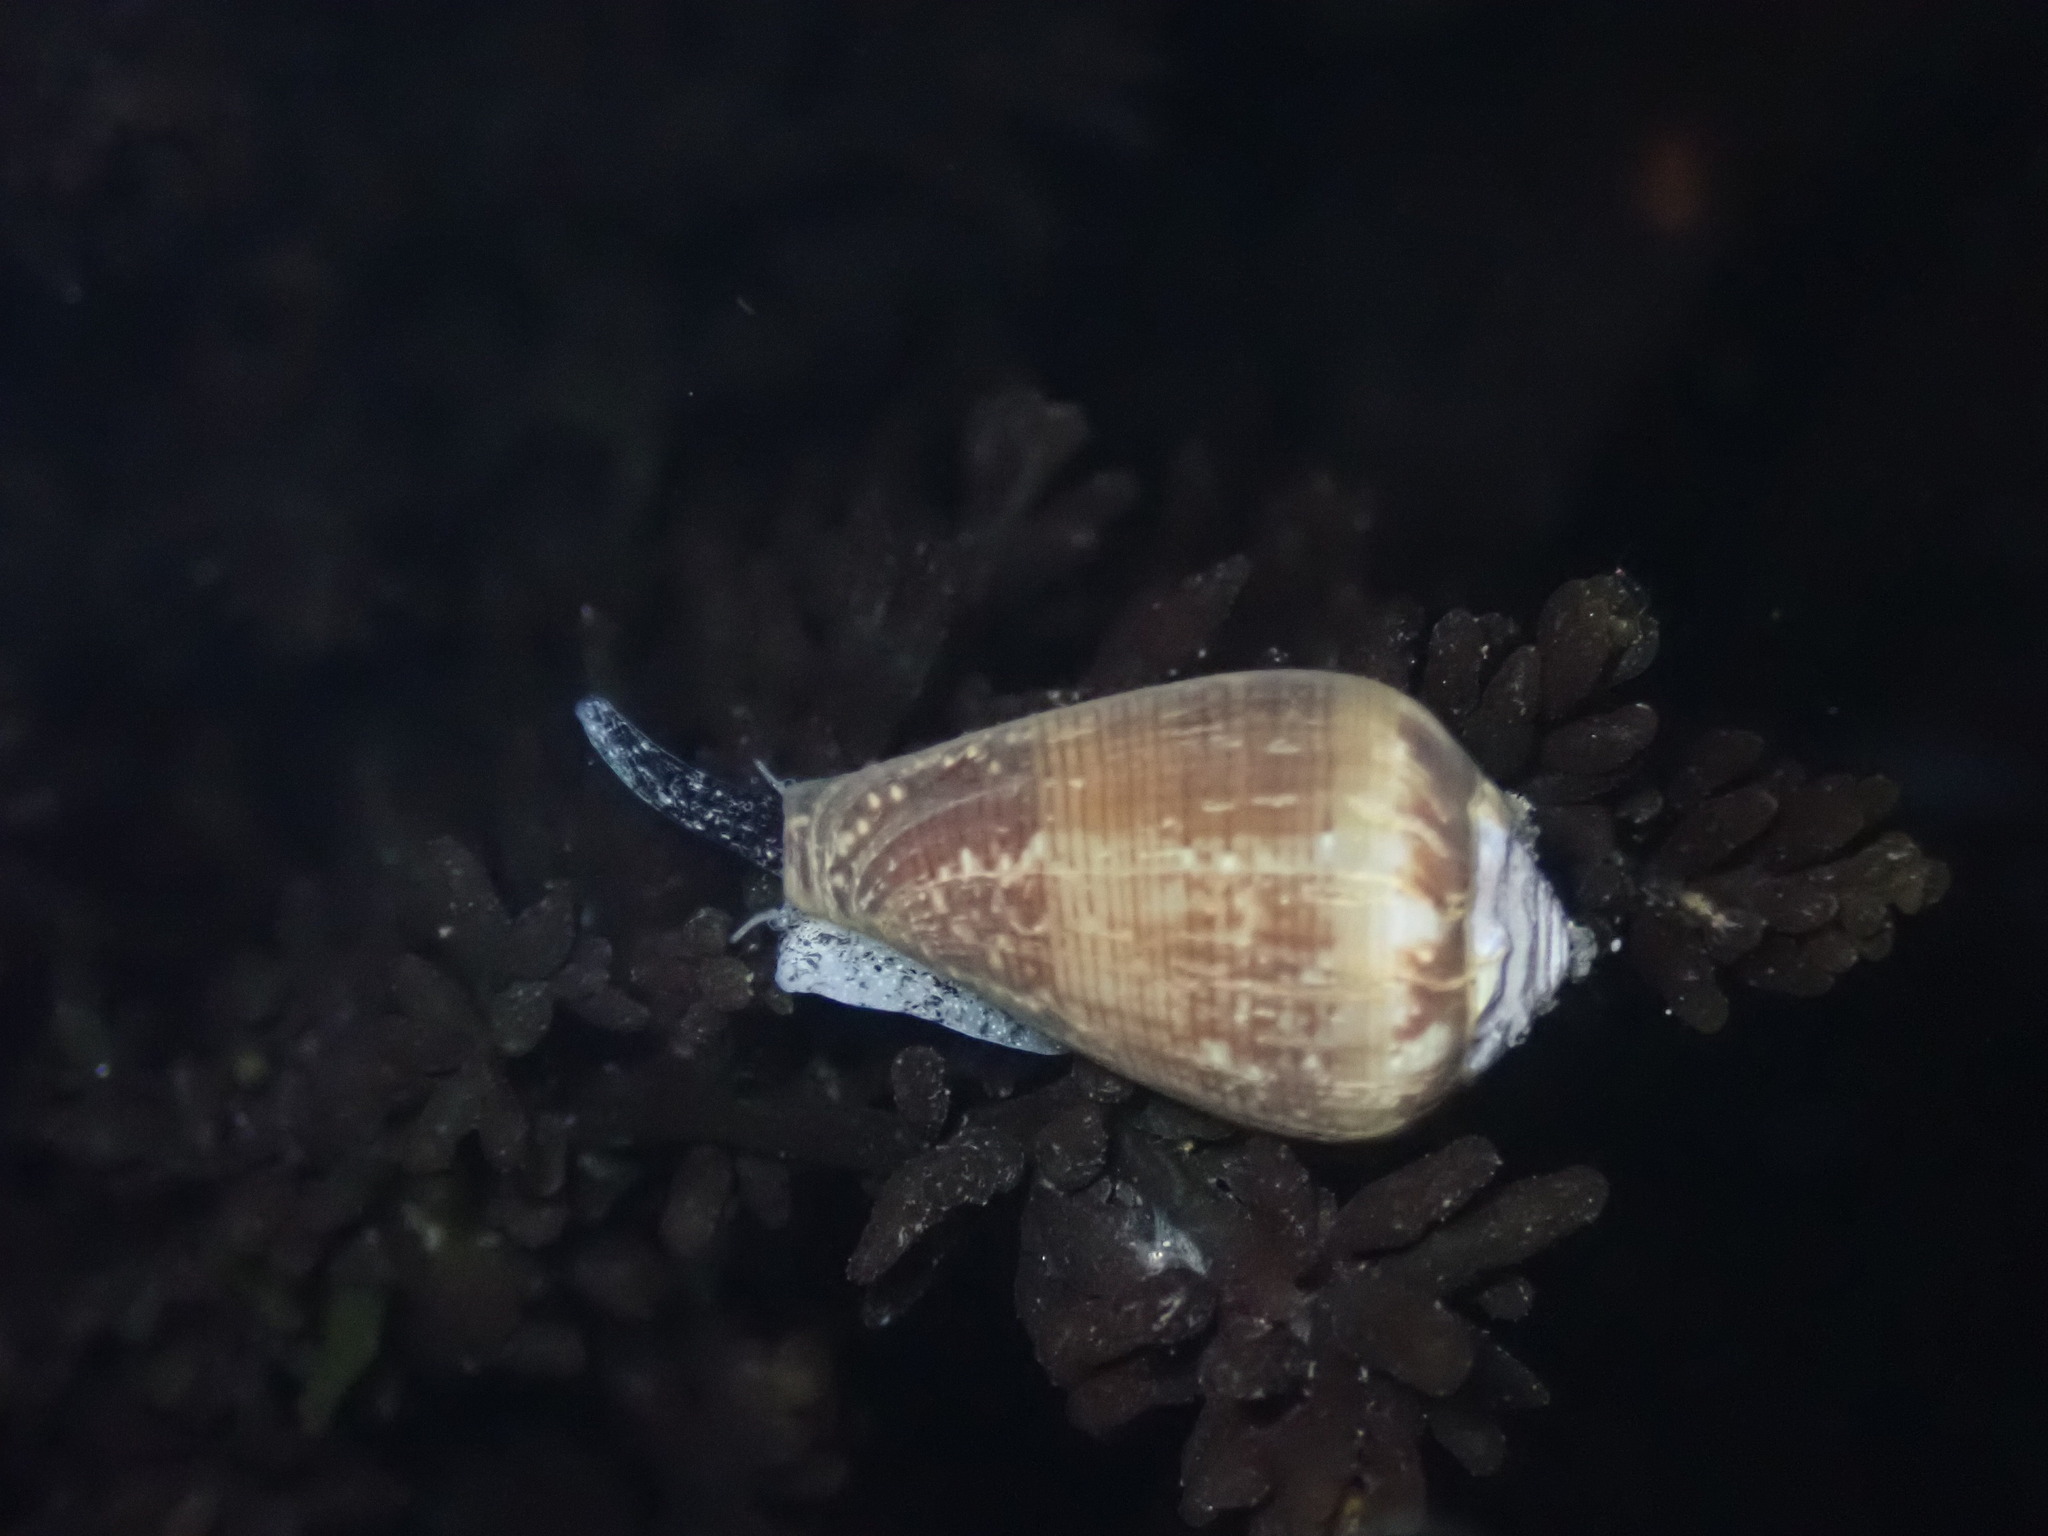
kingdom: Animalia
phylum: Mollusca
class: Gastropoda
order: Neogastropoda
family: Conidae
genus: Californiconus
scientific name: Californiconus californicus
